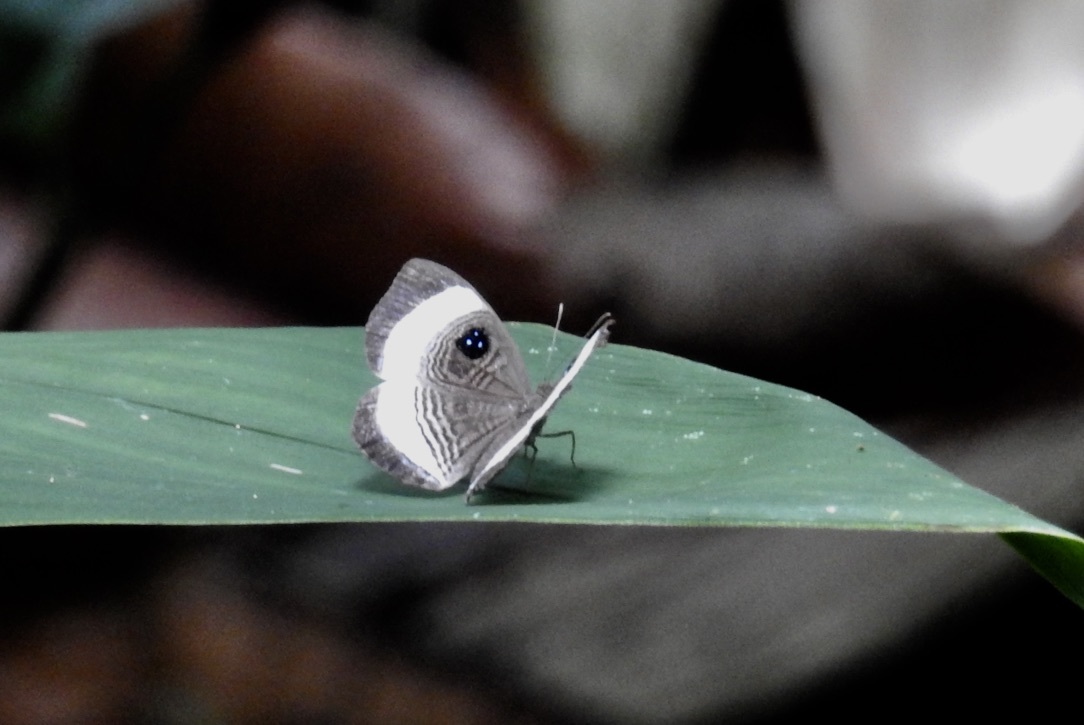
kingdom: Animalia
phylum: Arthropoda
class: Insecta
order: Lepidoptera
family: Riodinidae
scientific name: Riodinidae
